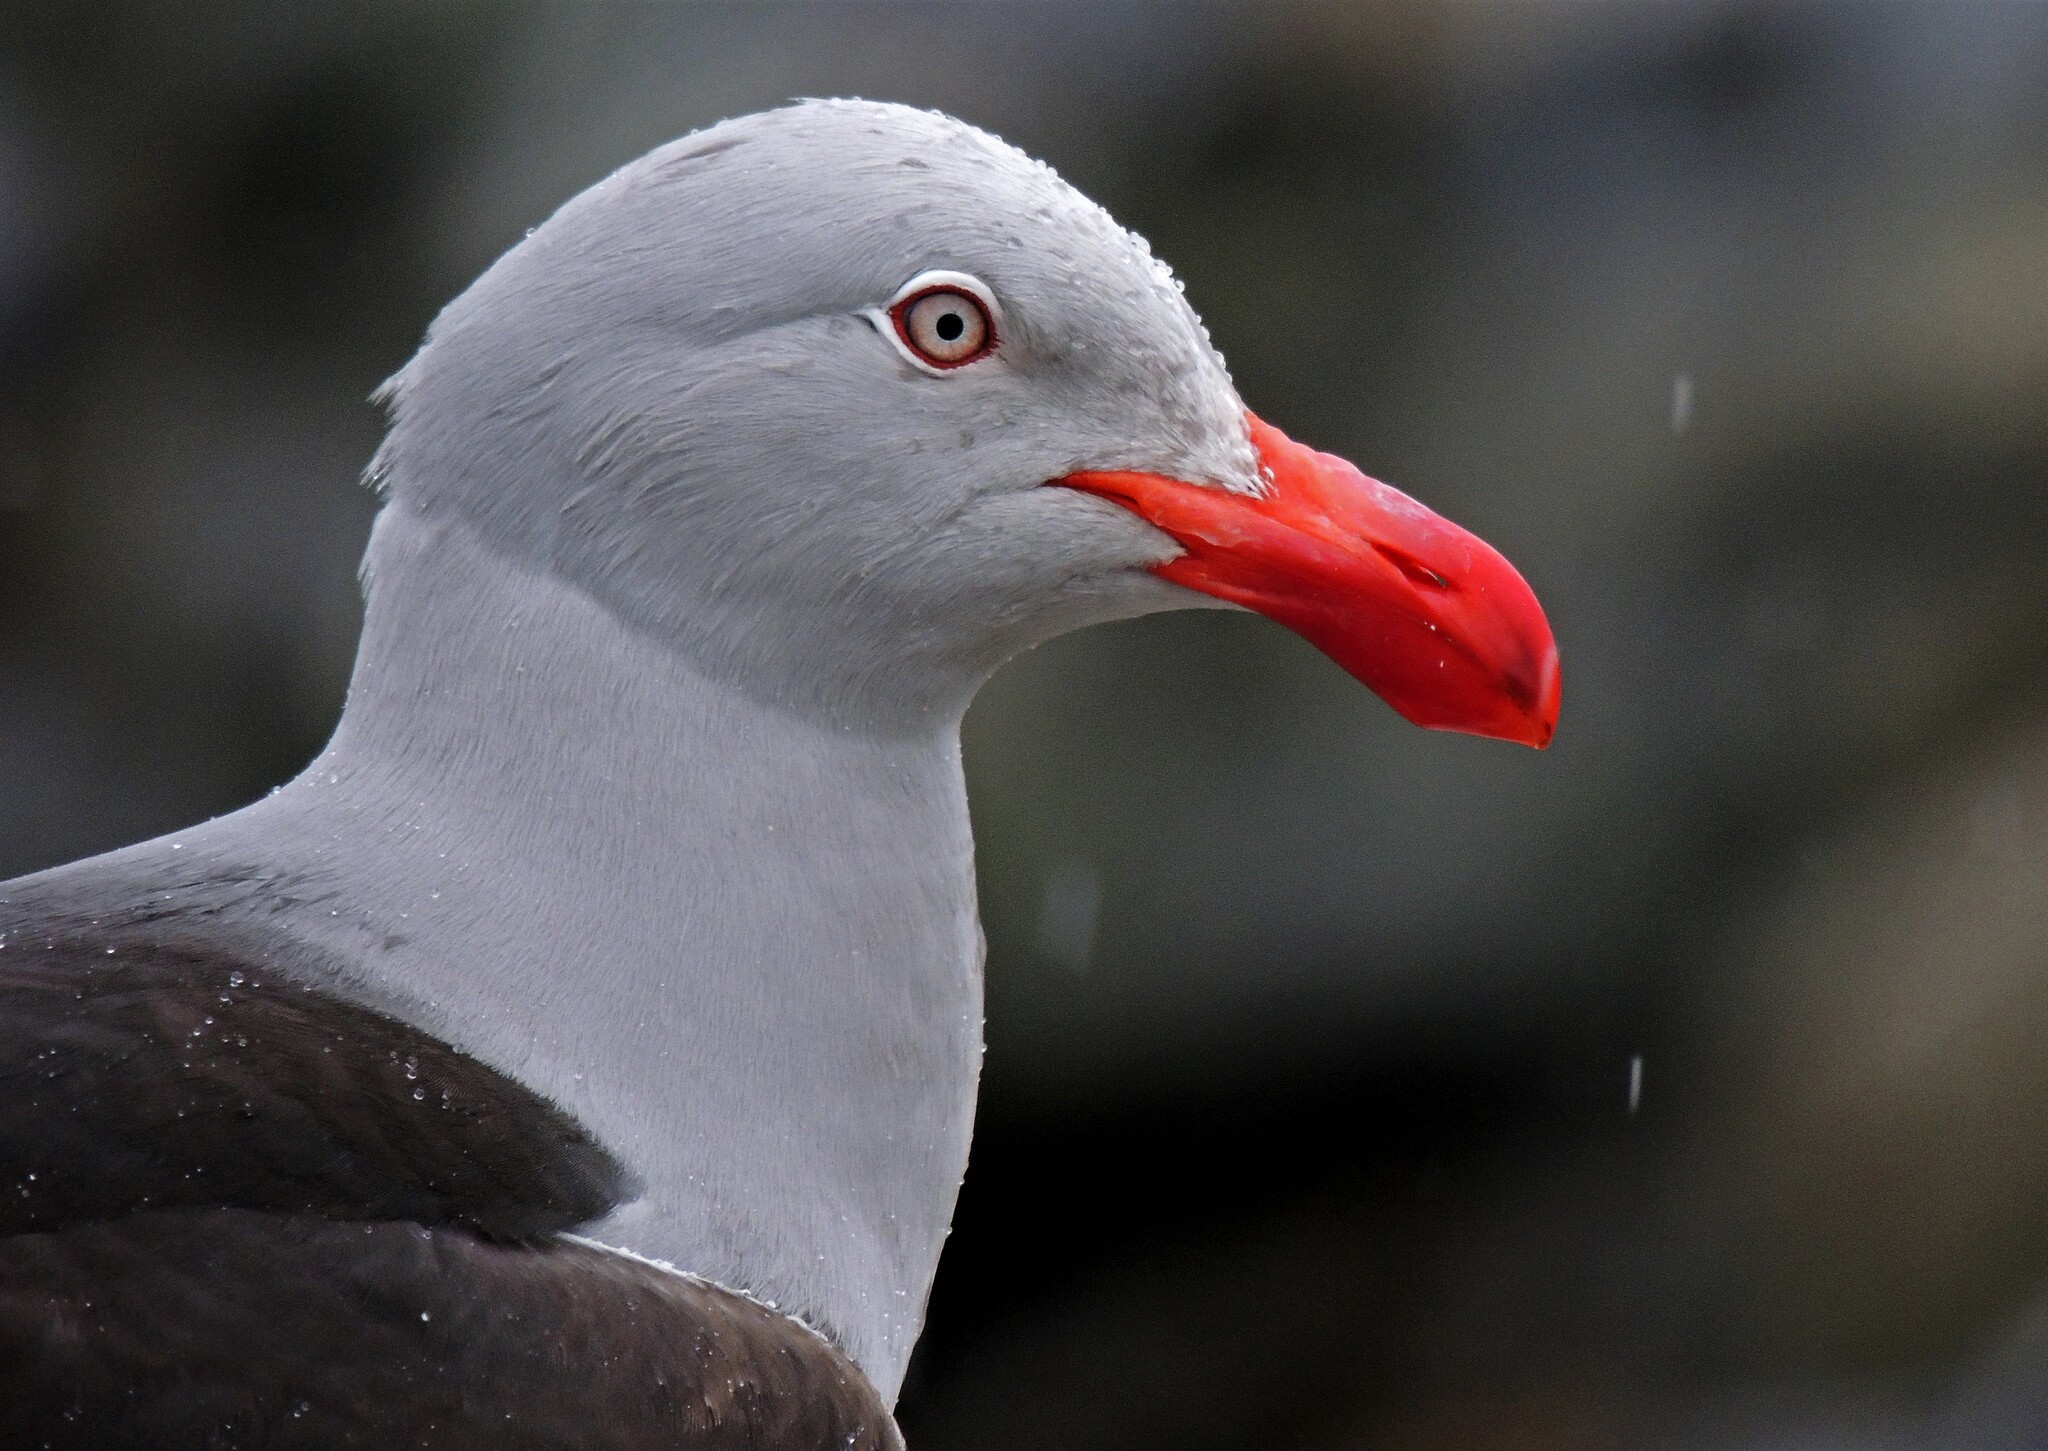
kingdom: Animalia
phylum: Chordata
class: Aves
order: Charadriiformes
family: Laridae
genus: Leucophaeus
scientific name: Leucophaeus scoresbii
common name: Dolphin gull
